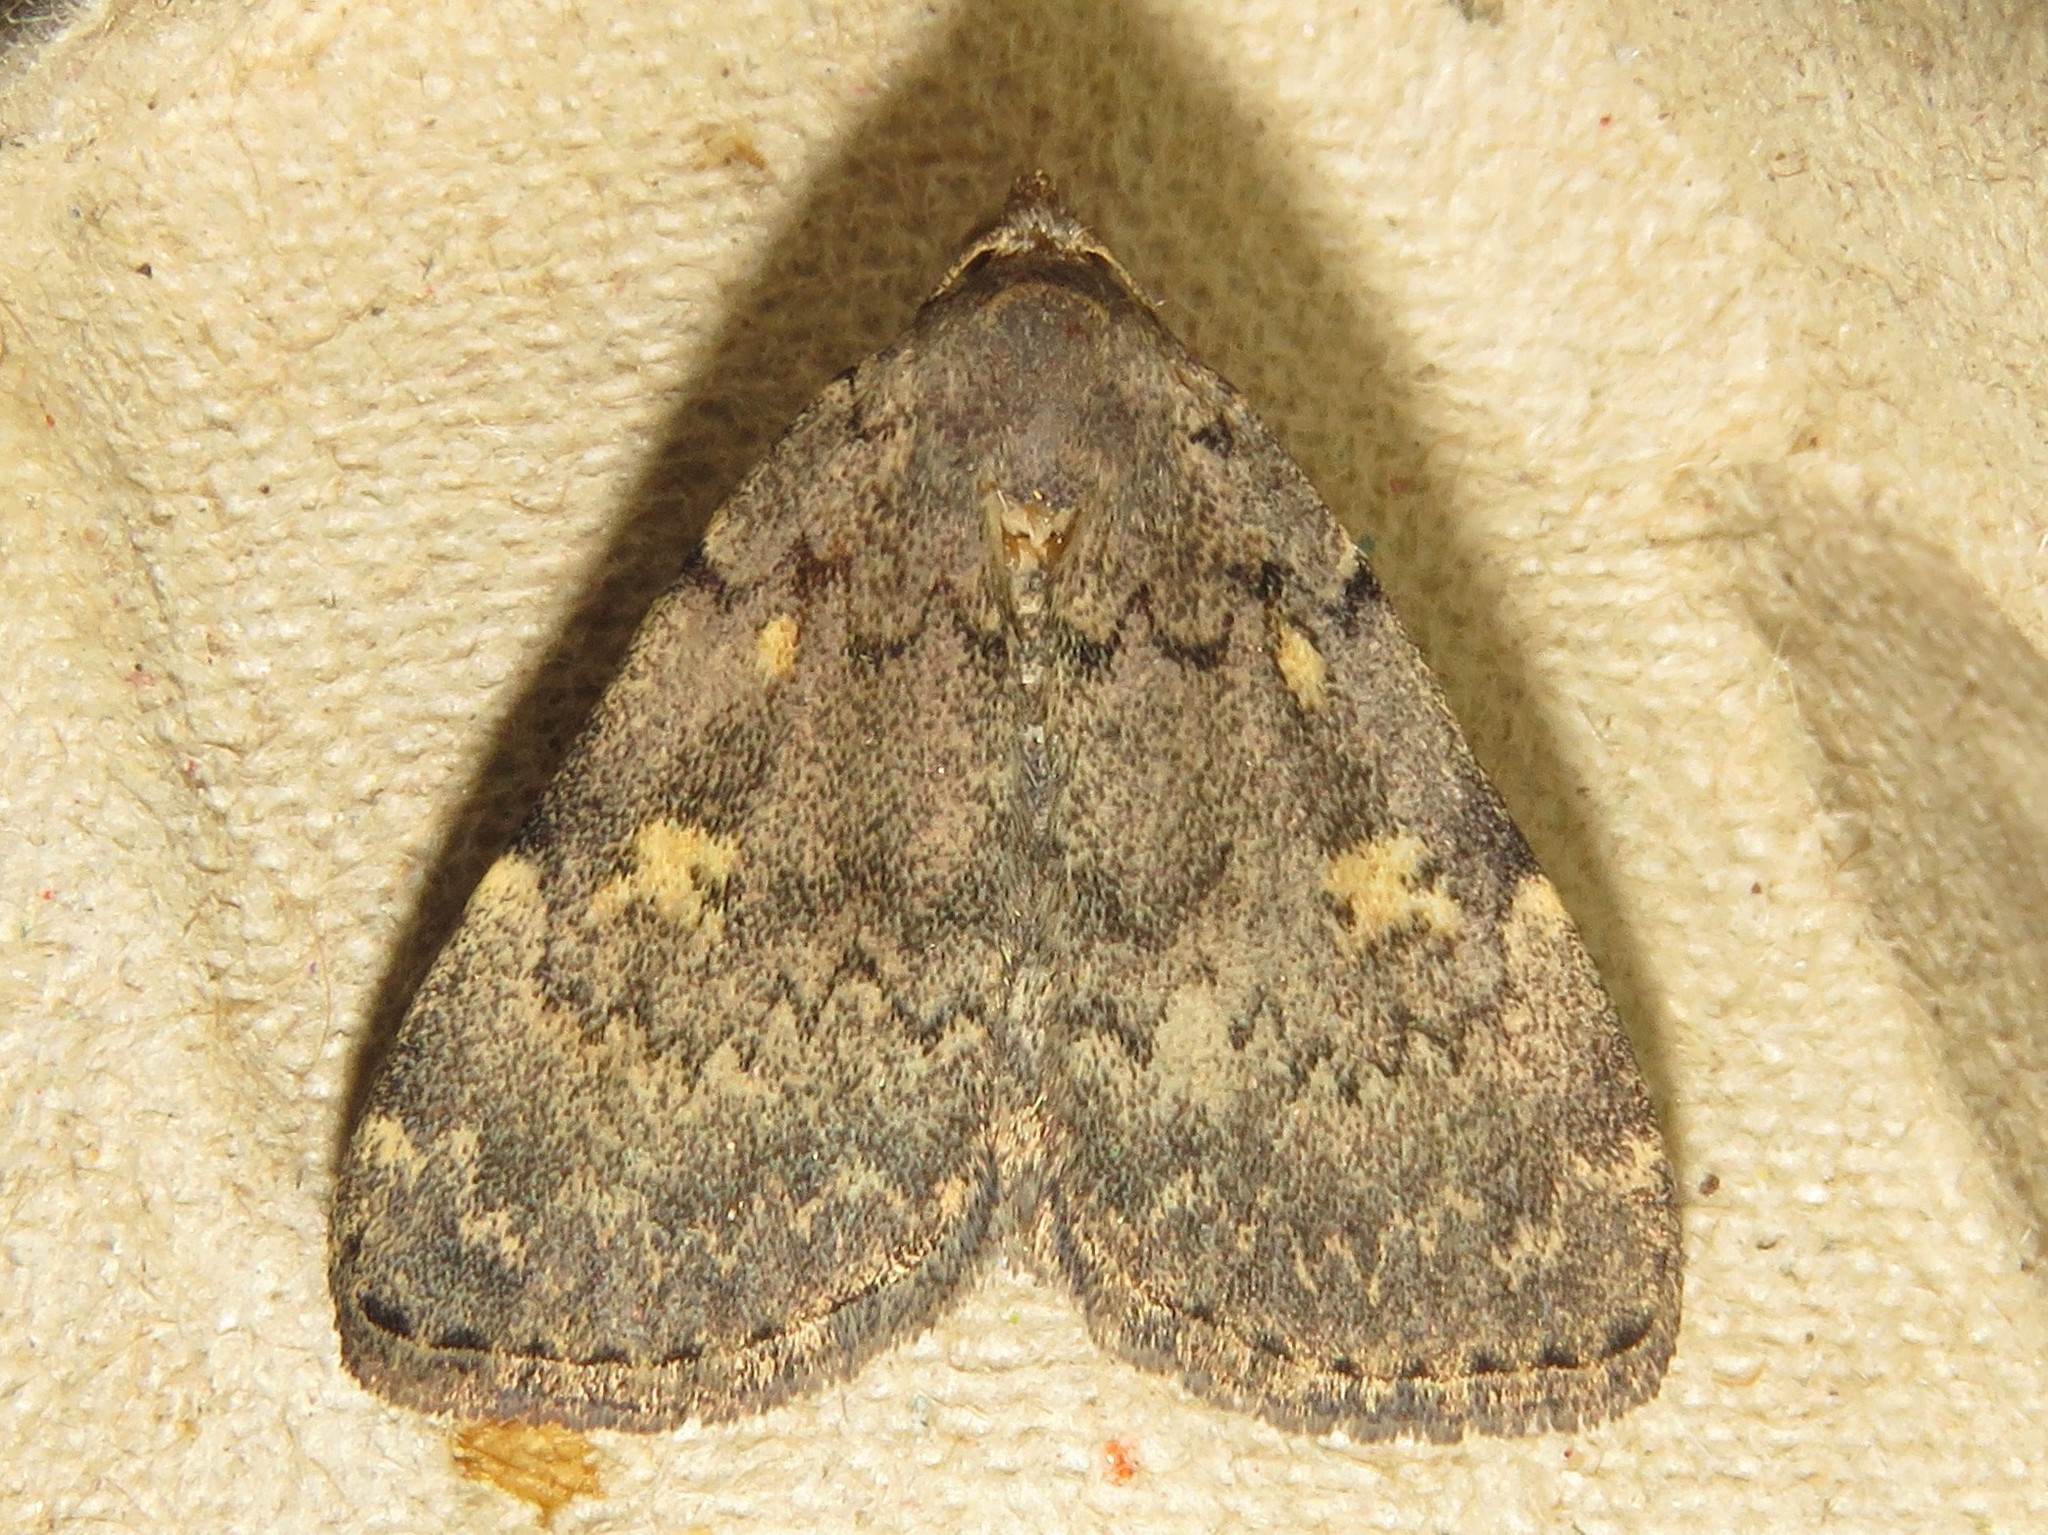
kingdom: Animalia
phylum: Arthropoda
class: Insecta
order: Lepidoptera
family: Erebidae
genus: Idia
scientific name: Idia aemula
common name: Common idia moth
